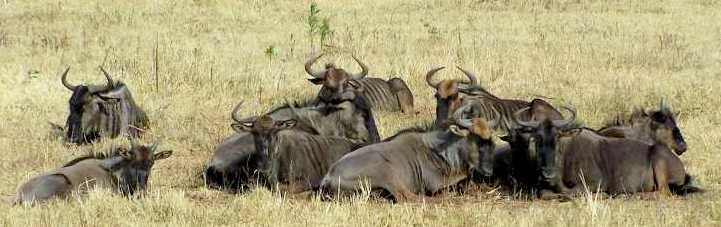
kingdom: Animalia
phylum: Chordata
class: Mammalia
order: Artiodactyla
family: Bovidae
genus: Connochaetes
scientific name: Connochaetes taurinus
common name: Blue wildebeest
